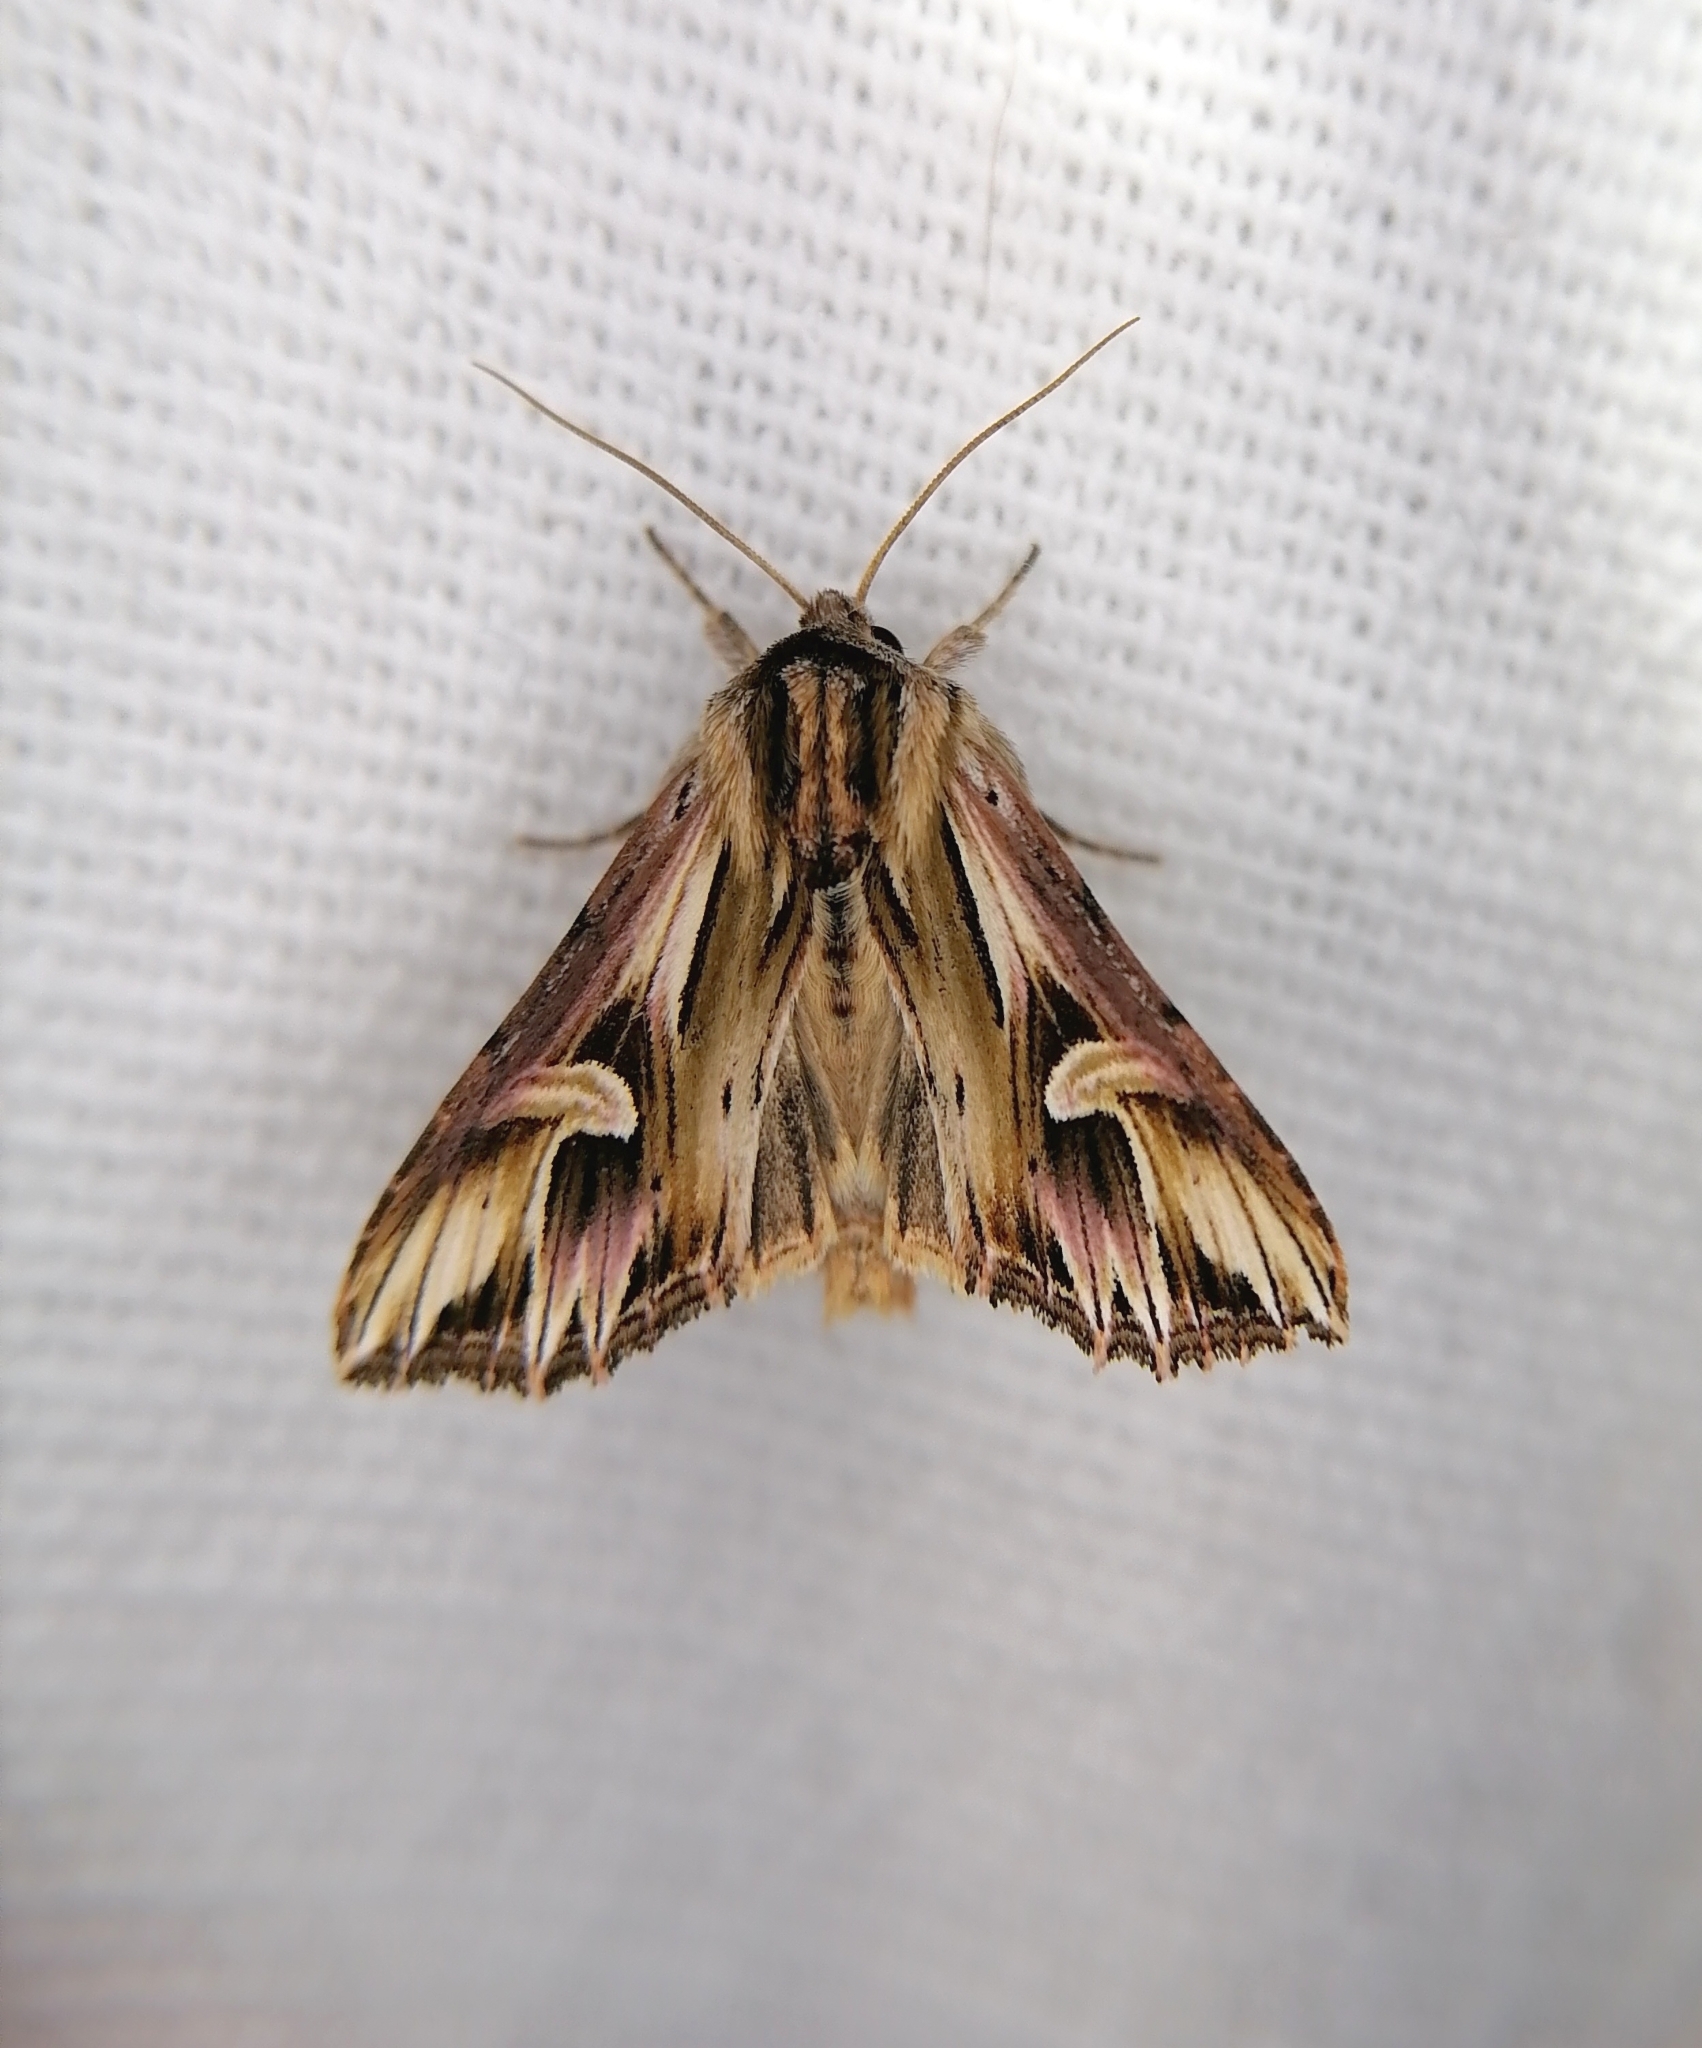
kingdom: Animalia
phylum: Arthropoda
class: Insecta
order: Lepidoptera
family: Noctuidae
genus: Actinotia
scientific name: Actinotia polyodon
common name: Purple cloud
